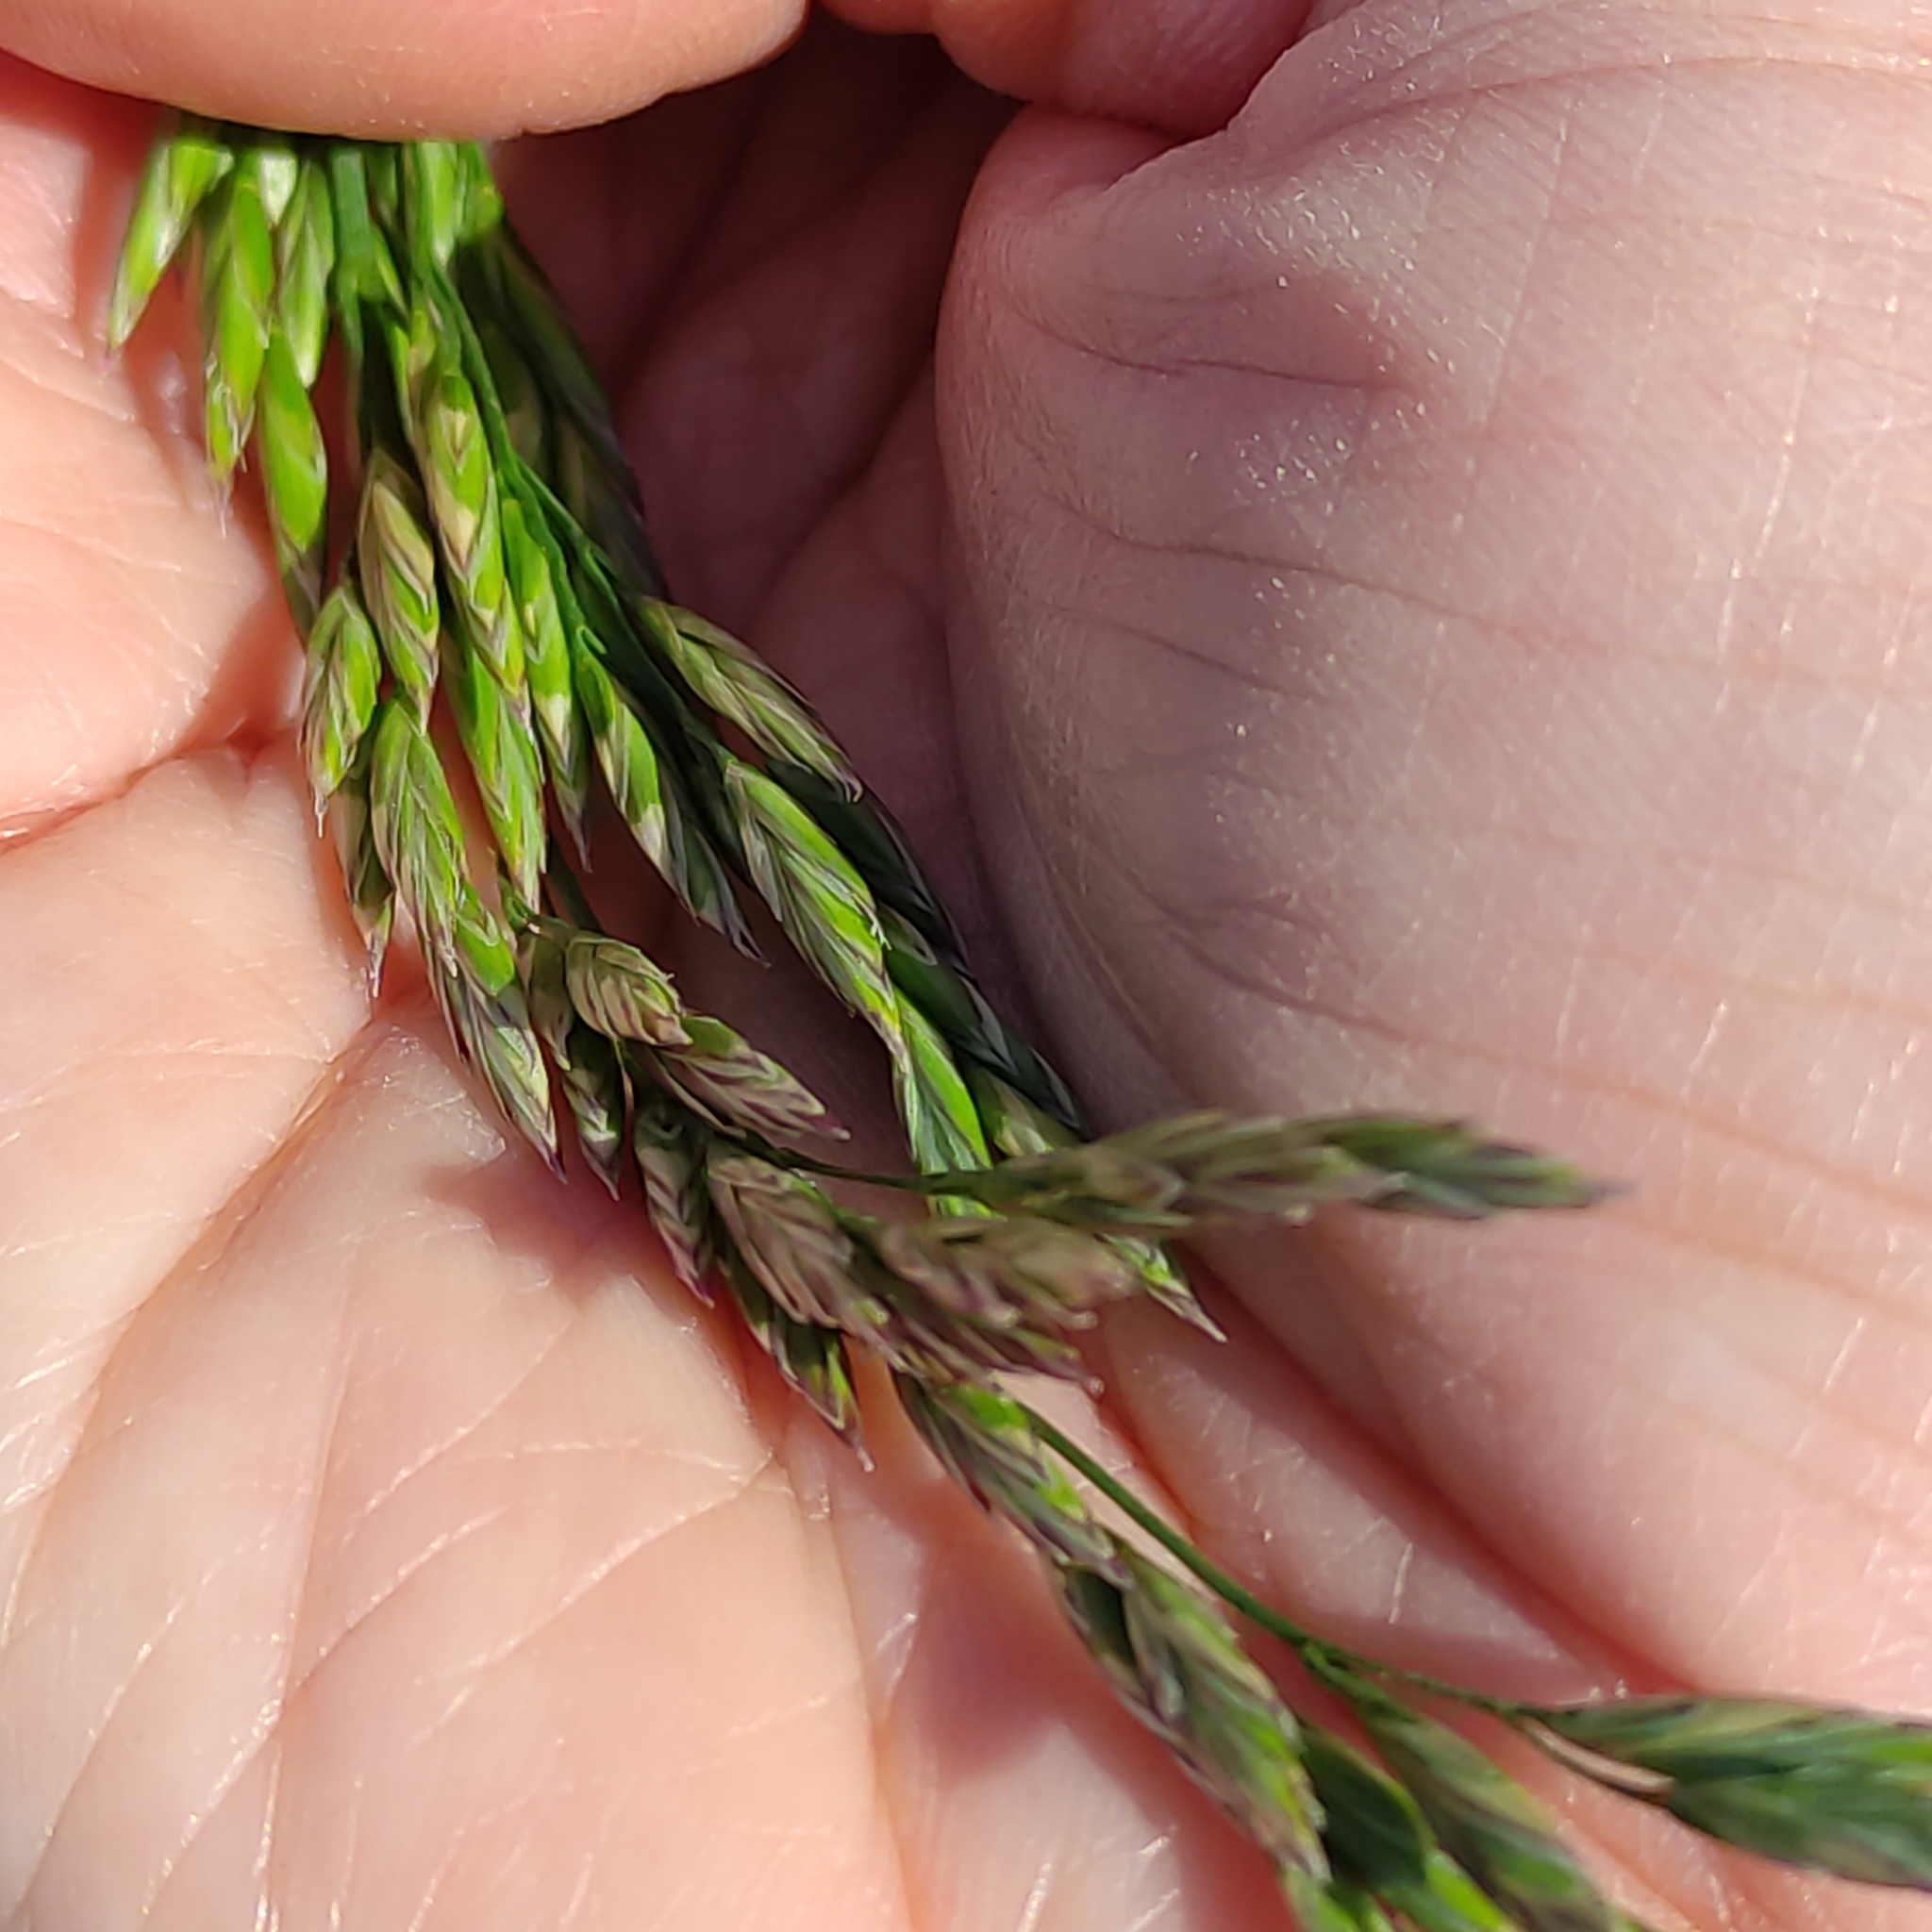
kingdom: Plantae
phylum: Tracheophyta
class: Liliopsida
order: Poales
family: Poaceae
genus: Lolium
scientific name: Lolium arundinaceum
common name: Reed fescue
